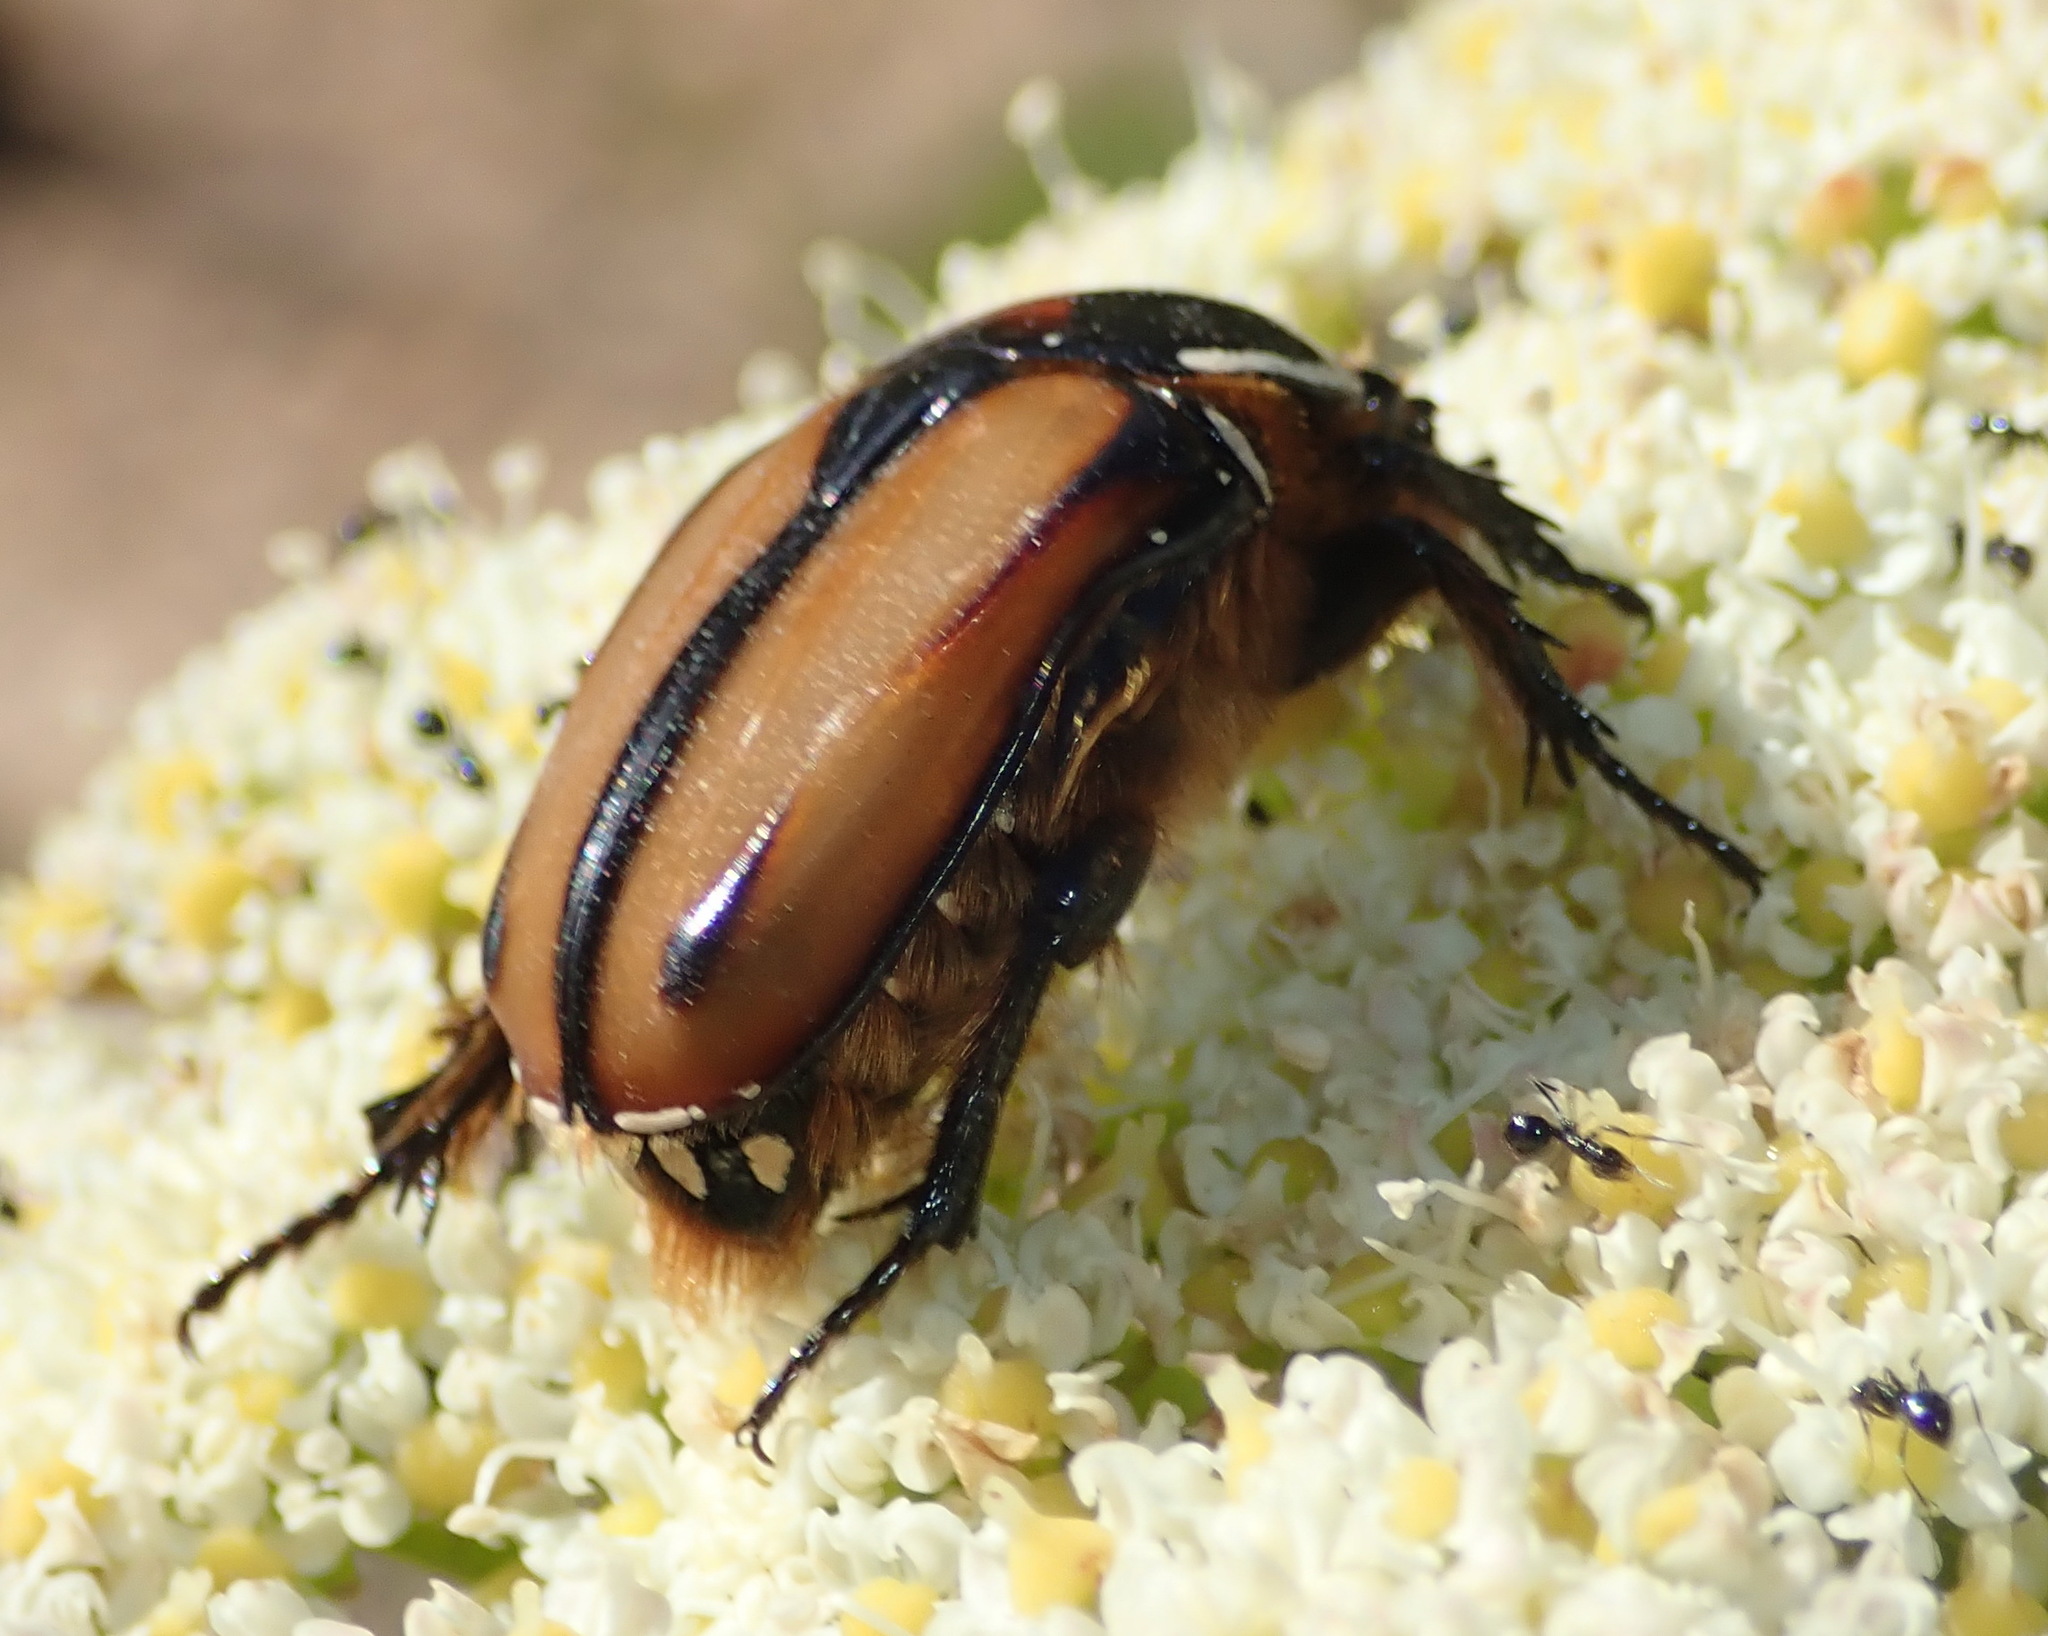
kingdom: Animalia
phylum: Arthropoda
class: Insecta
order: Coleoptera
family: Scarabaeidae
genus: Trichostetha
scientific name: Trichostetha signata
